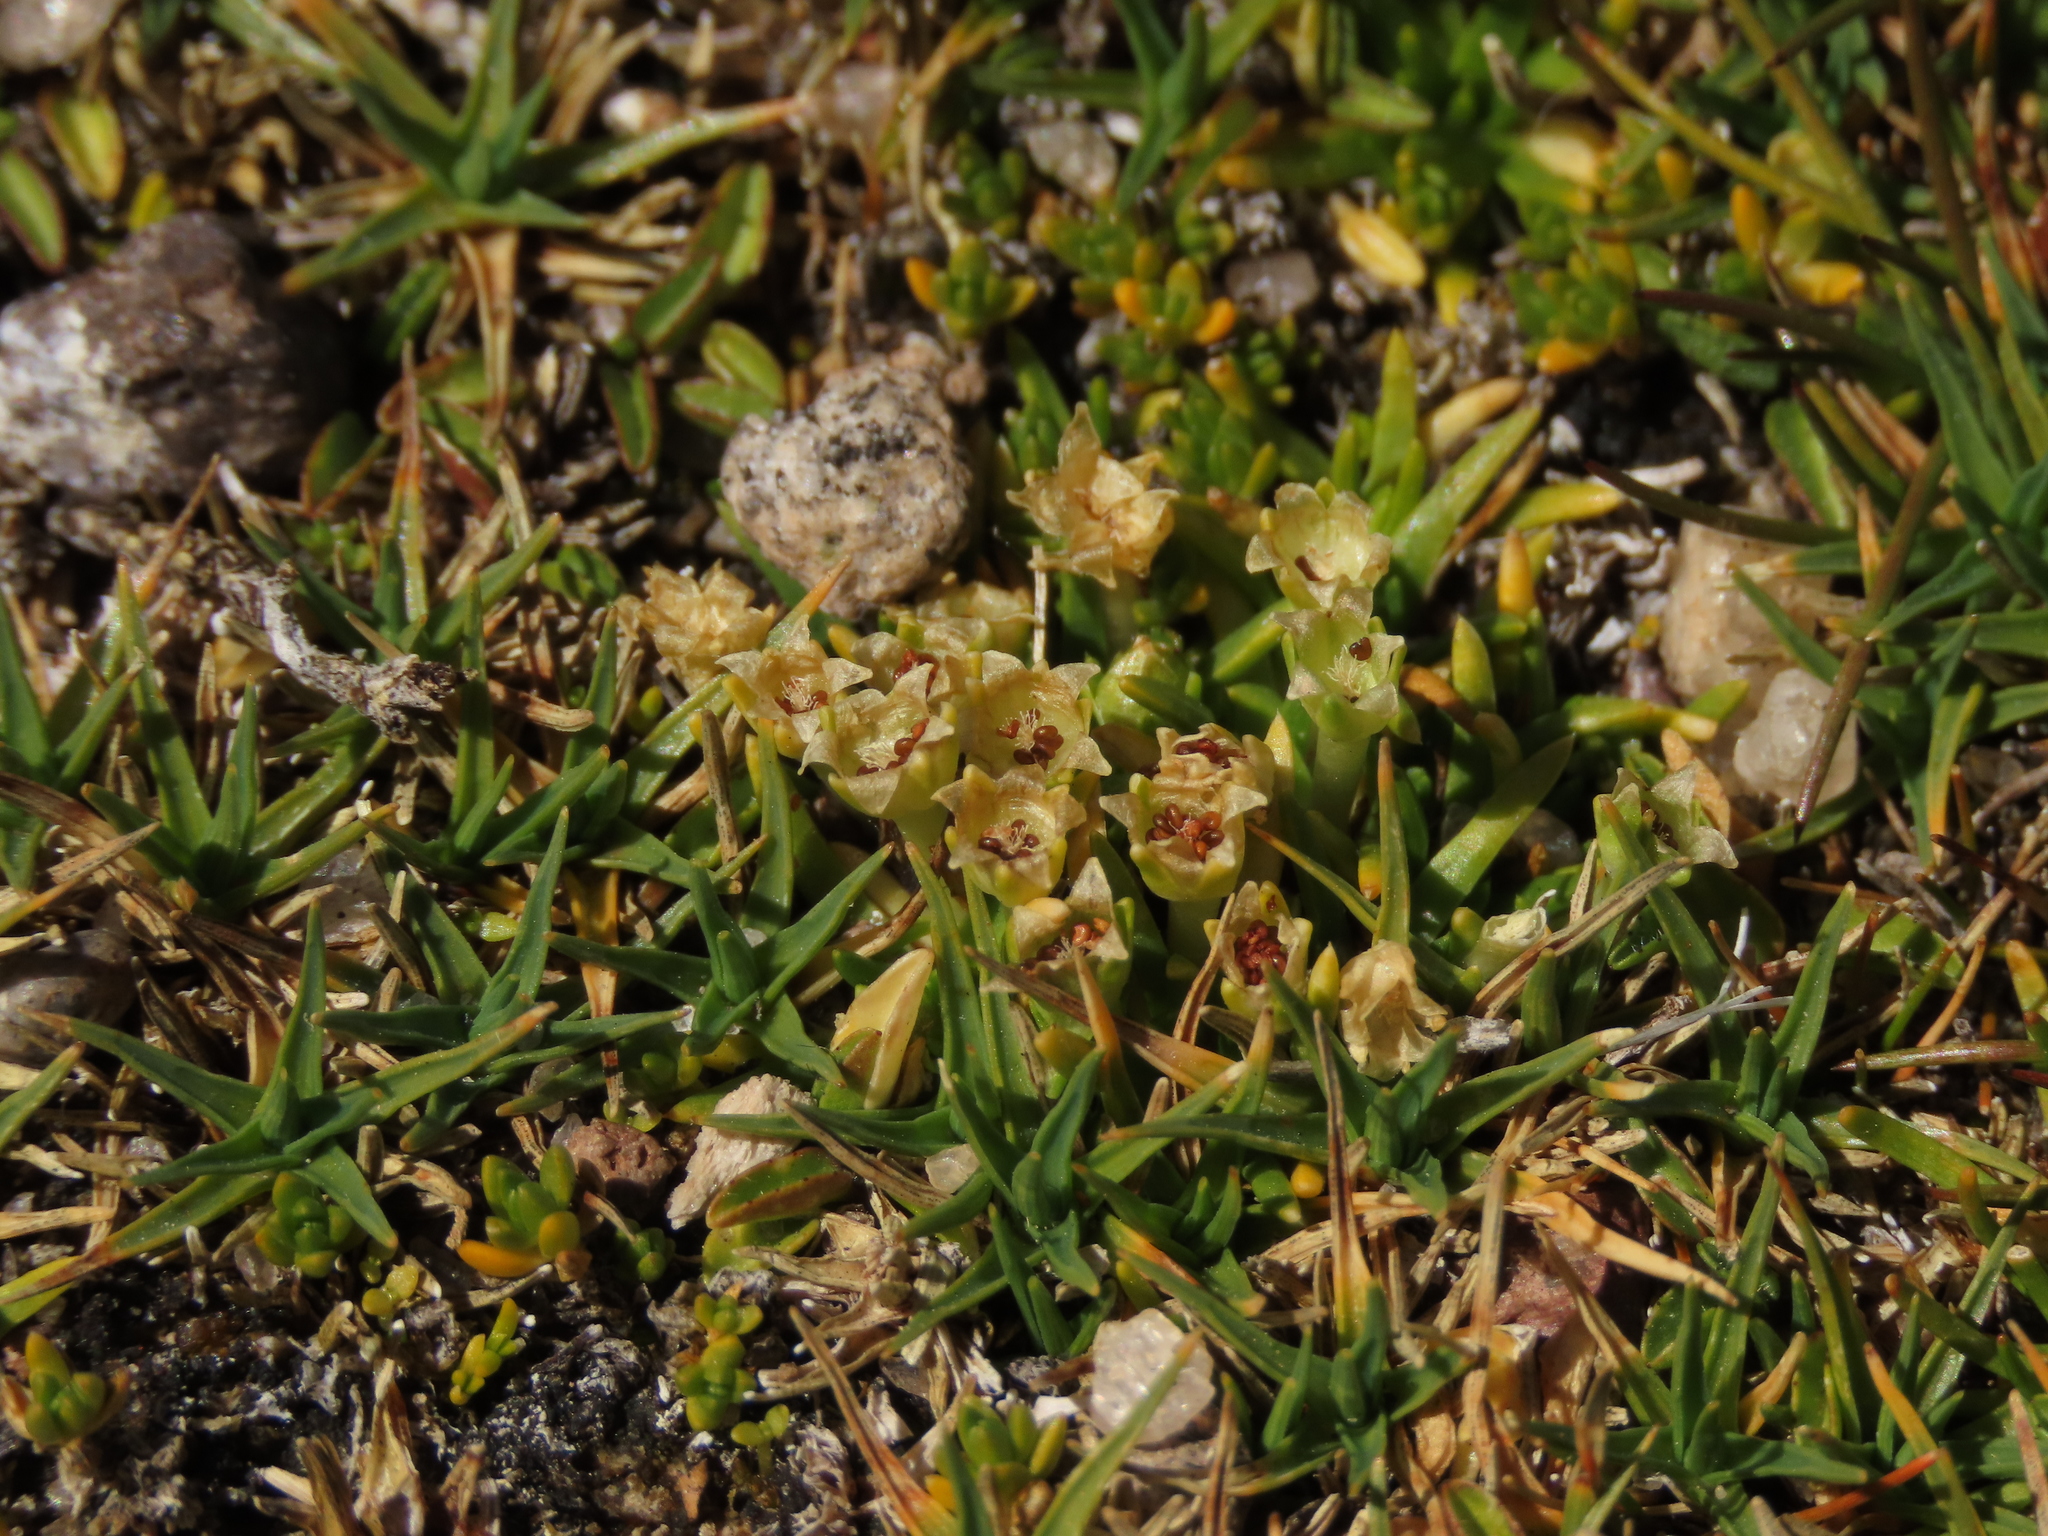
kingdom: Plantae
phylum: Tracheophyta
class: Magnoliopsida
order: Caryophyllales
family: Caryophyllaceae
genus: Colobanthus
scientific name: Colobanthus quitensis
